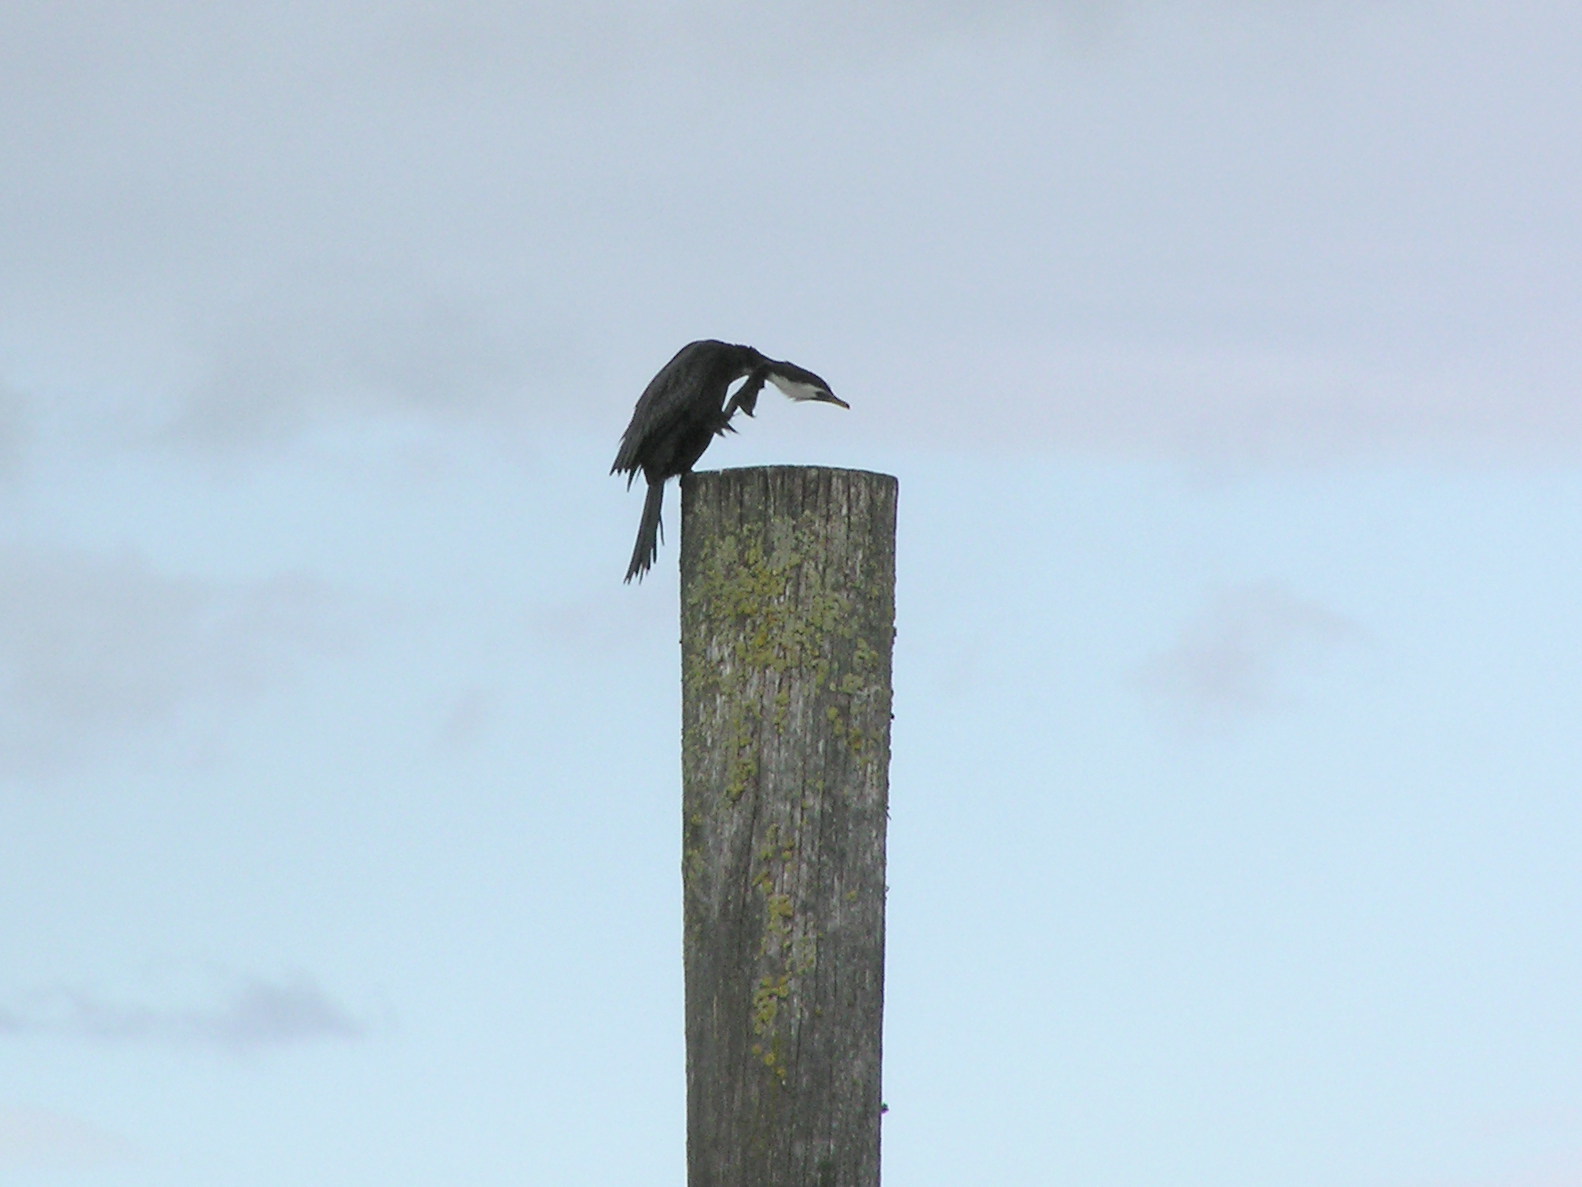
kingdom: Animalia
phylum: Chordata
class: Aves
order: Suliformes
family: Phalacrocoracidae
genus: Microcarbo
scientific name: Microcarbo melanoleucos
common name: Little pied cormorant
